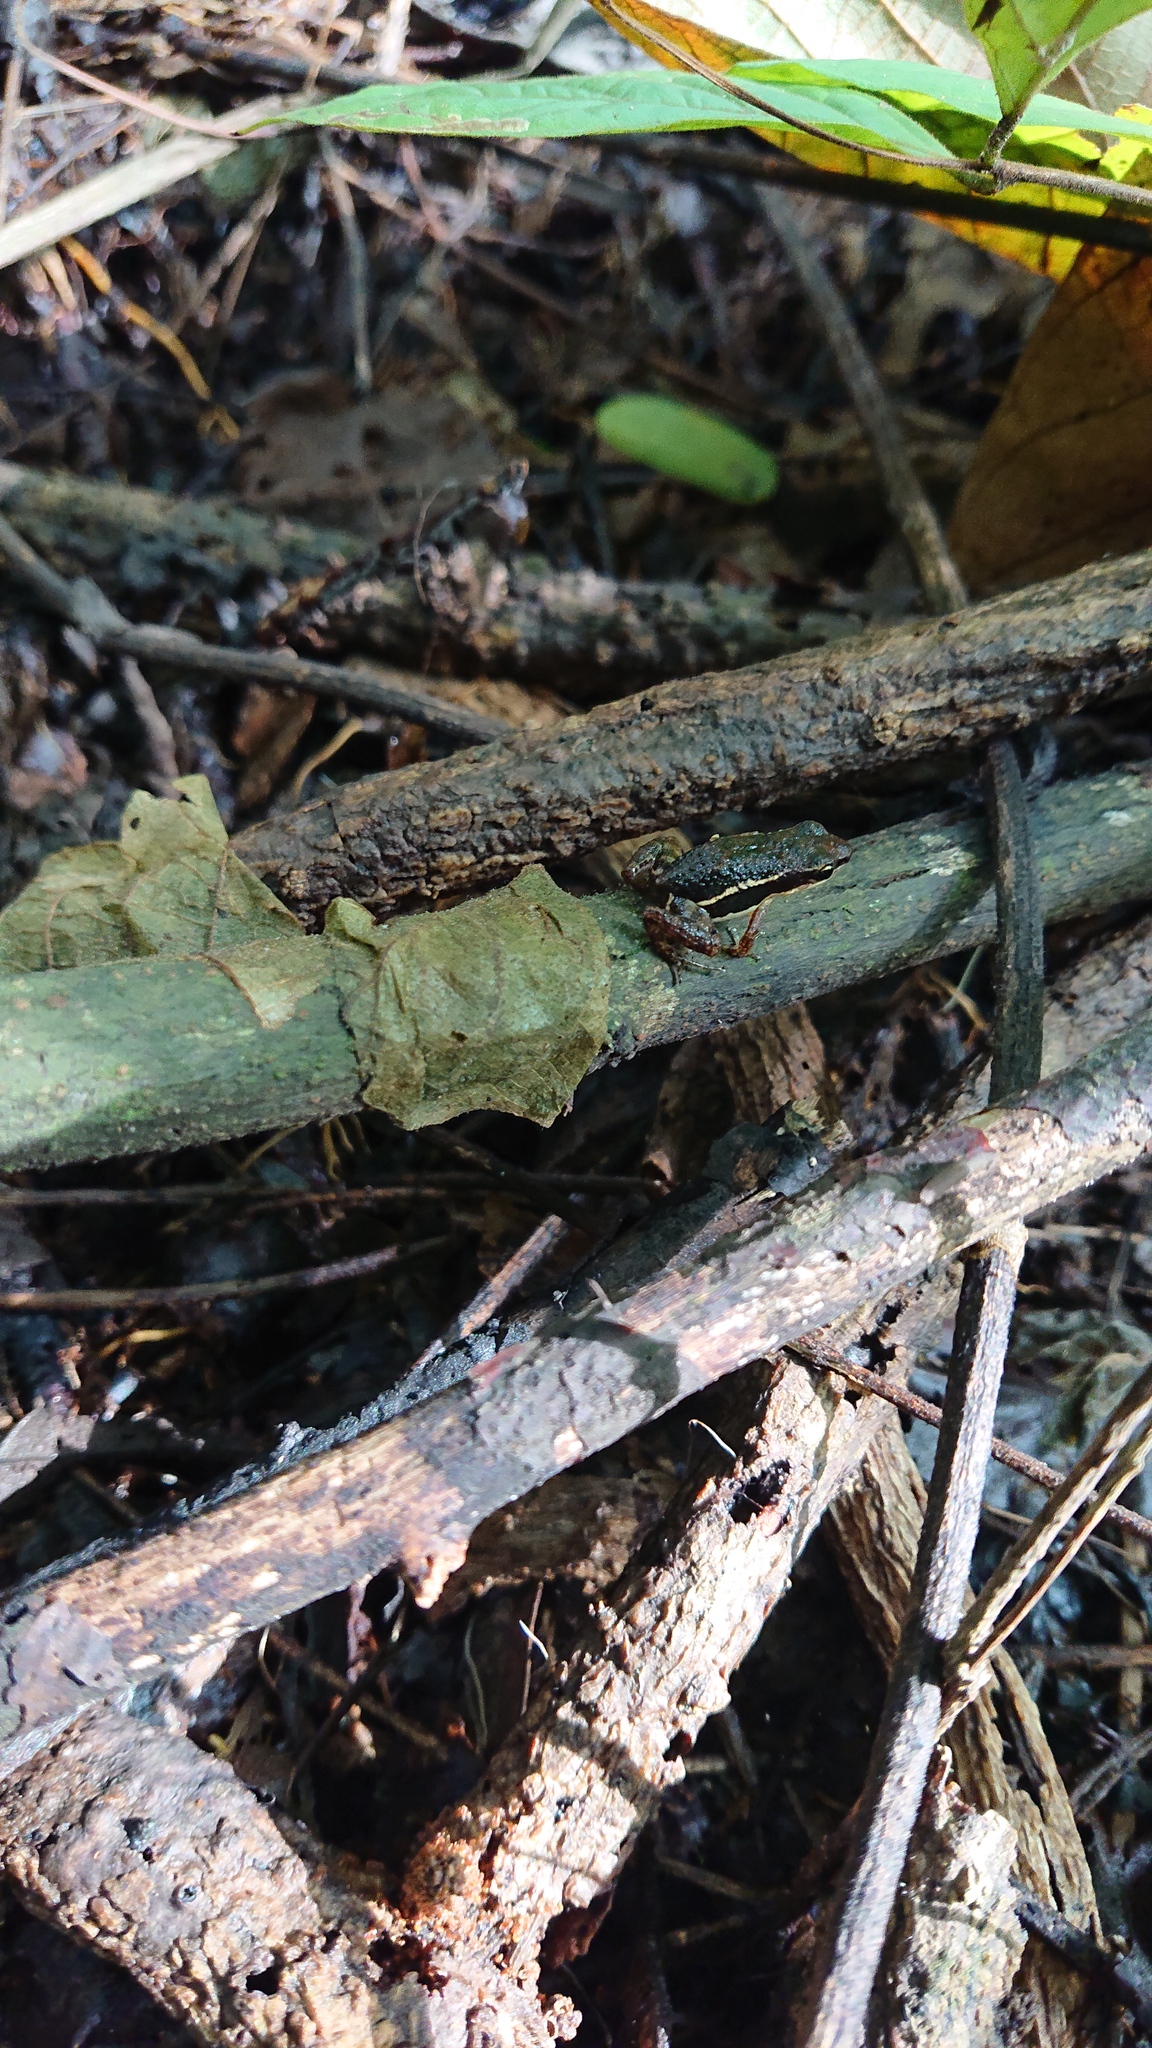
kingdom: Animalia
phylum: Chordata
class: Amphibia
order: Anura
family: Dendrobatidae
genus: Epipedobates
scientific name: Epipedobates machalilla
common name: Machalilla rocket frog
